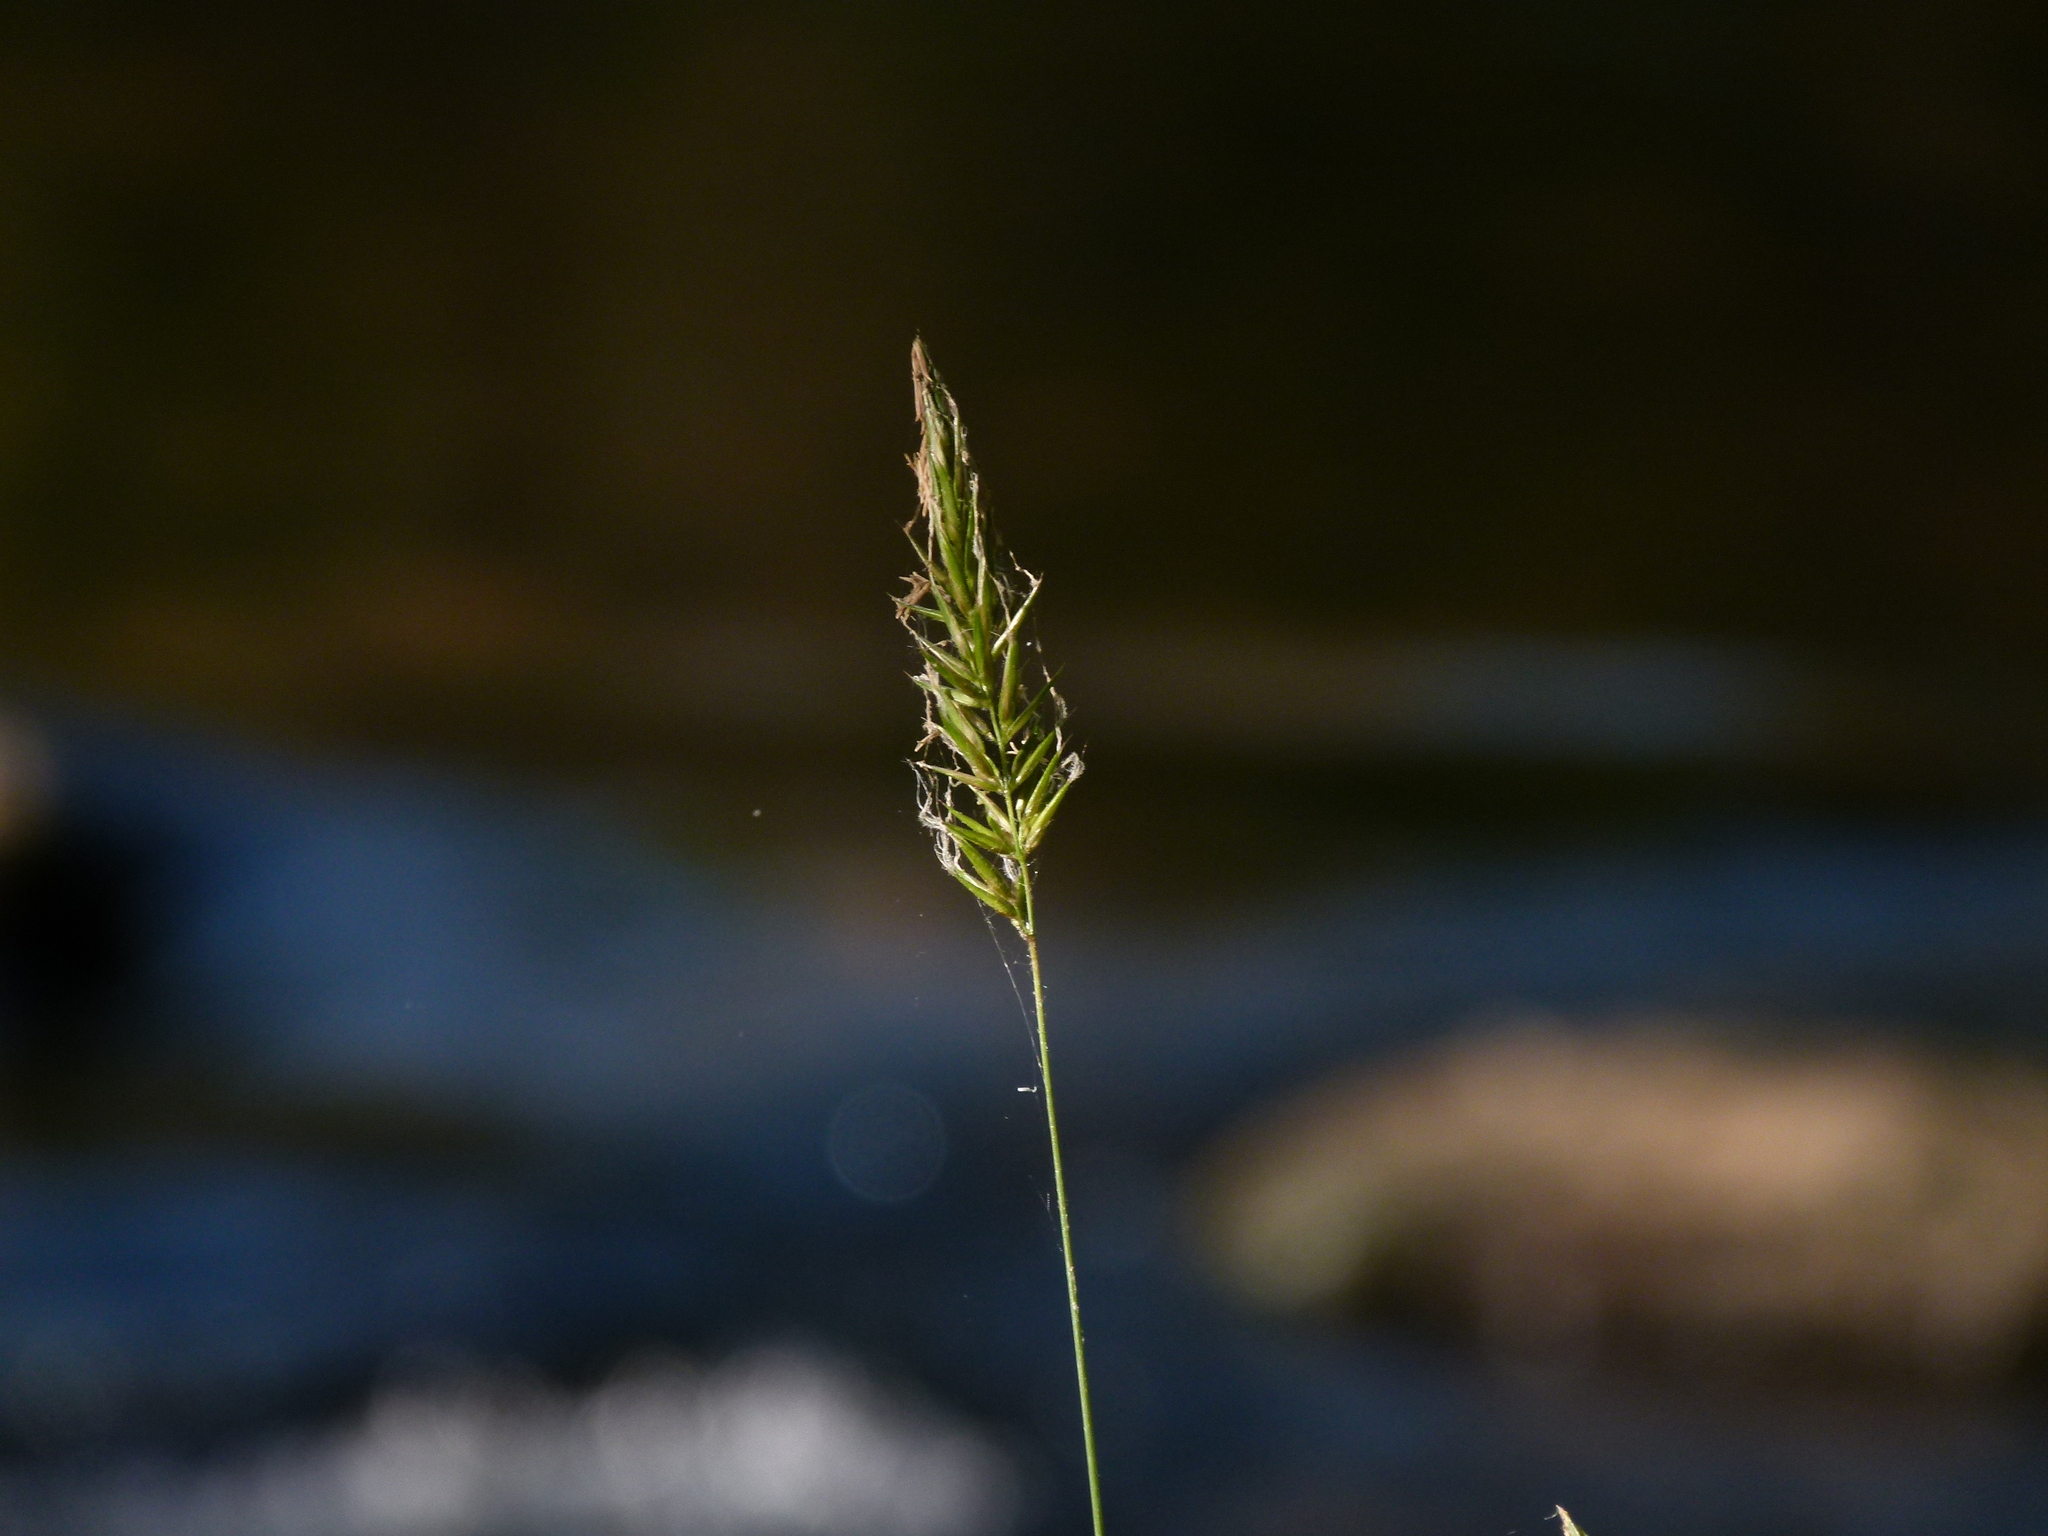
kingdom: Plantae
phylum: Tracheophyta
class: Liliopsida
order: Poales
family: Poaceae
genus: Anthoxanthum
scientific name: Anthoxanthum odoratum
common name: Sweet vernalgrass
